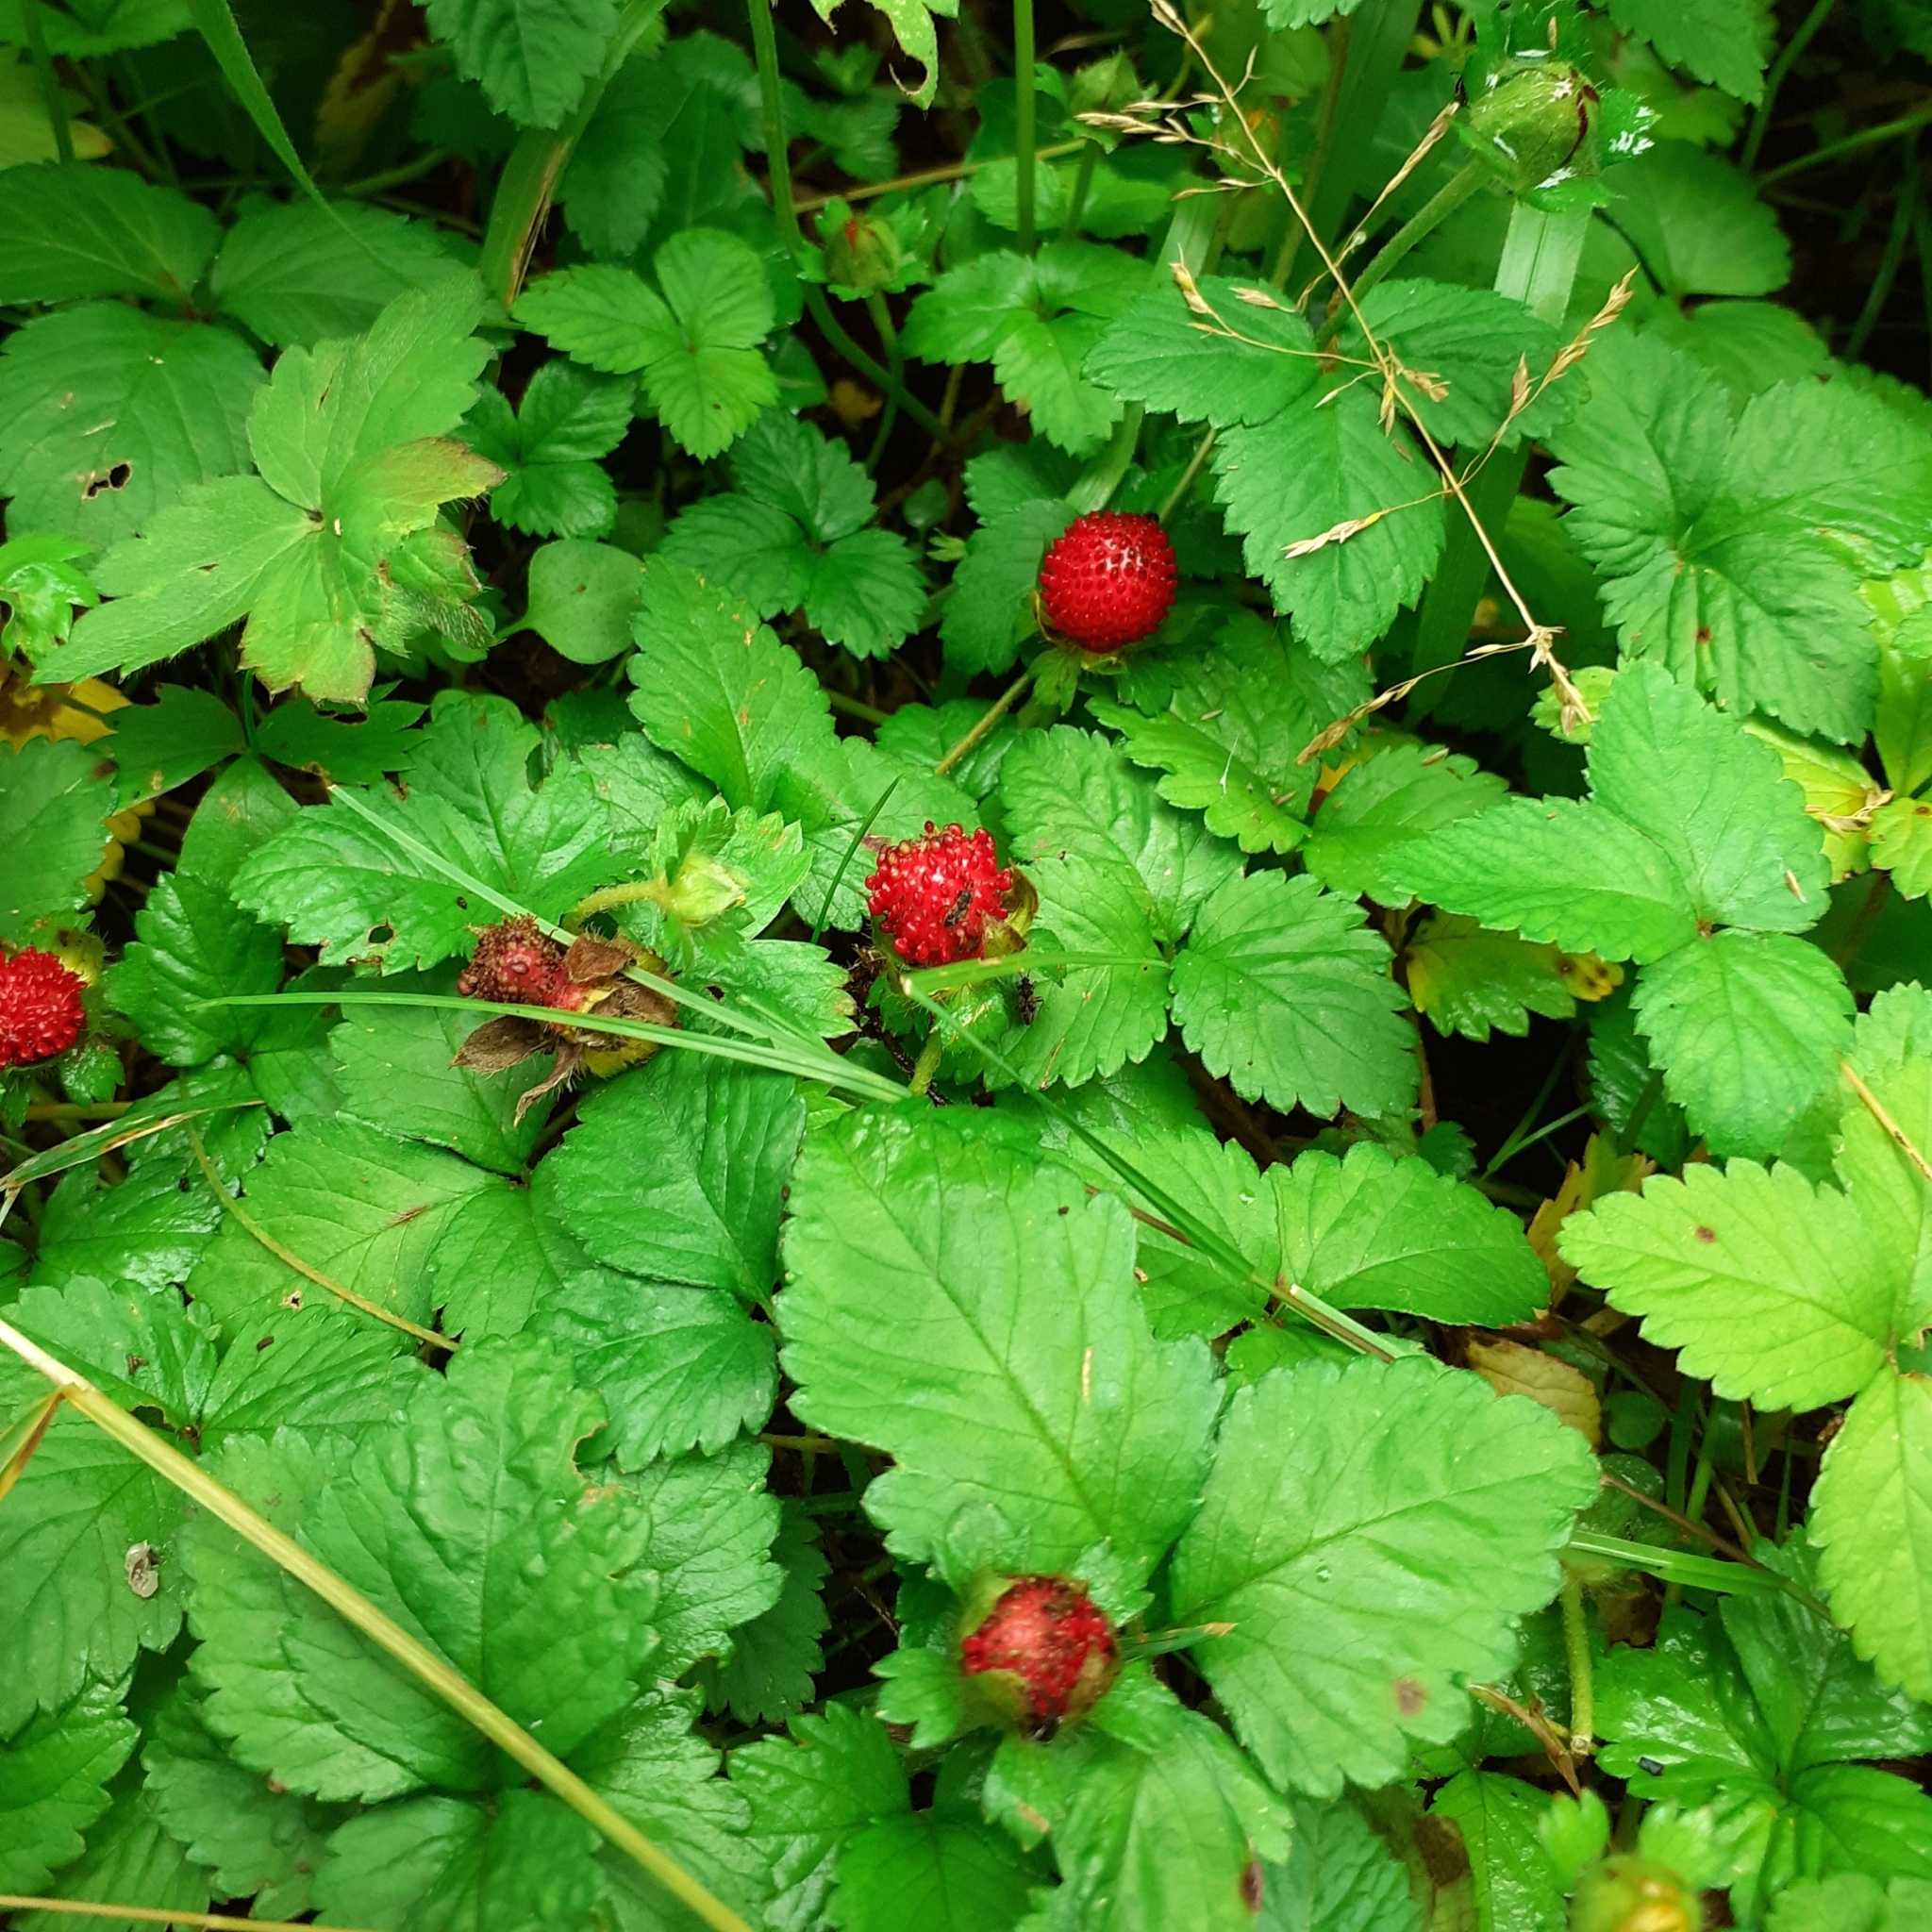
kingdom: Plantae
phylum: Tracheophyta
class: Magnoliopsida
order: Rosales
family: Rosaceae
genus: Potentilla
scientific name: Potentilla indica
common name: Yellow-flowered strawberry
